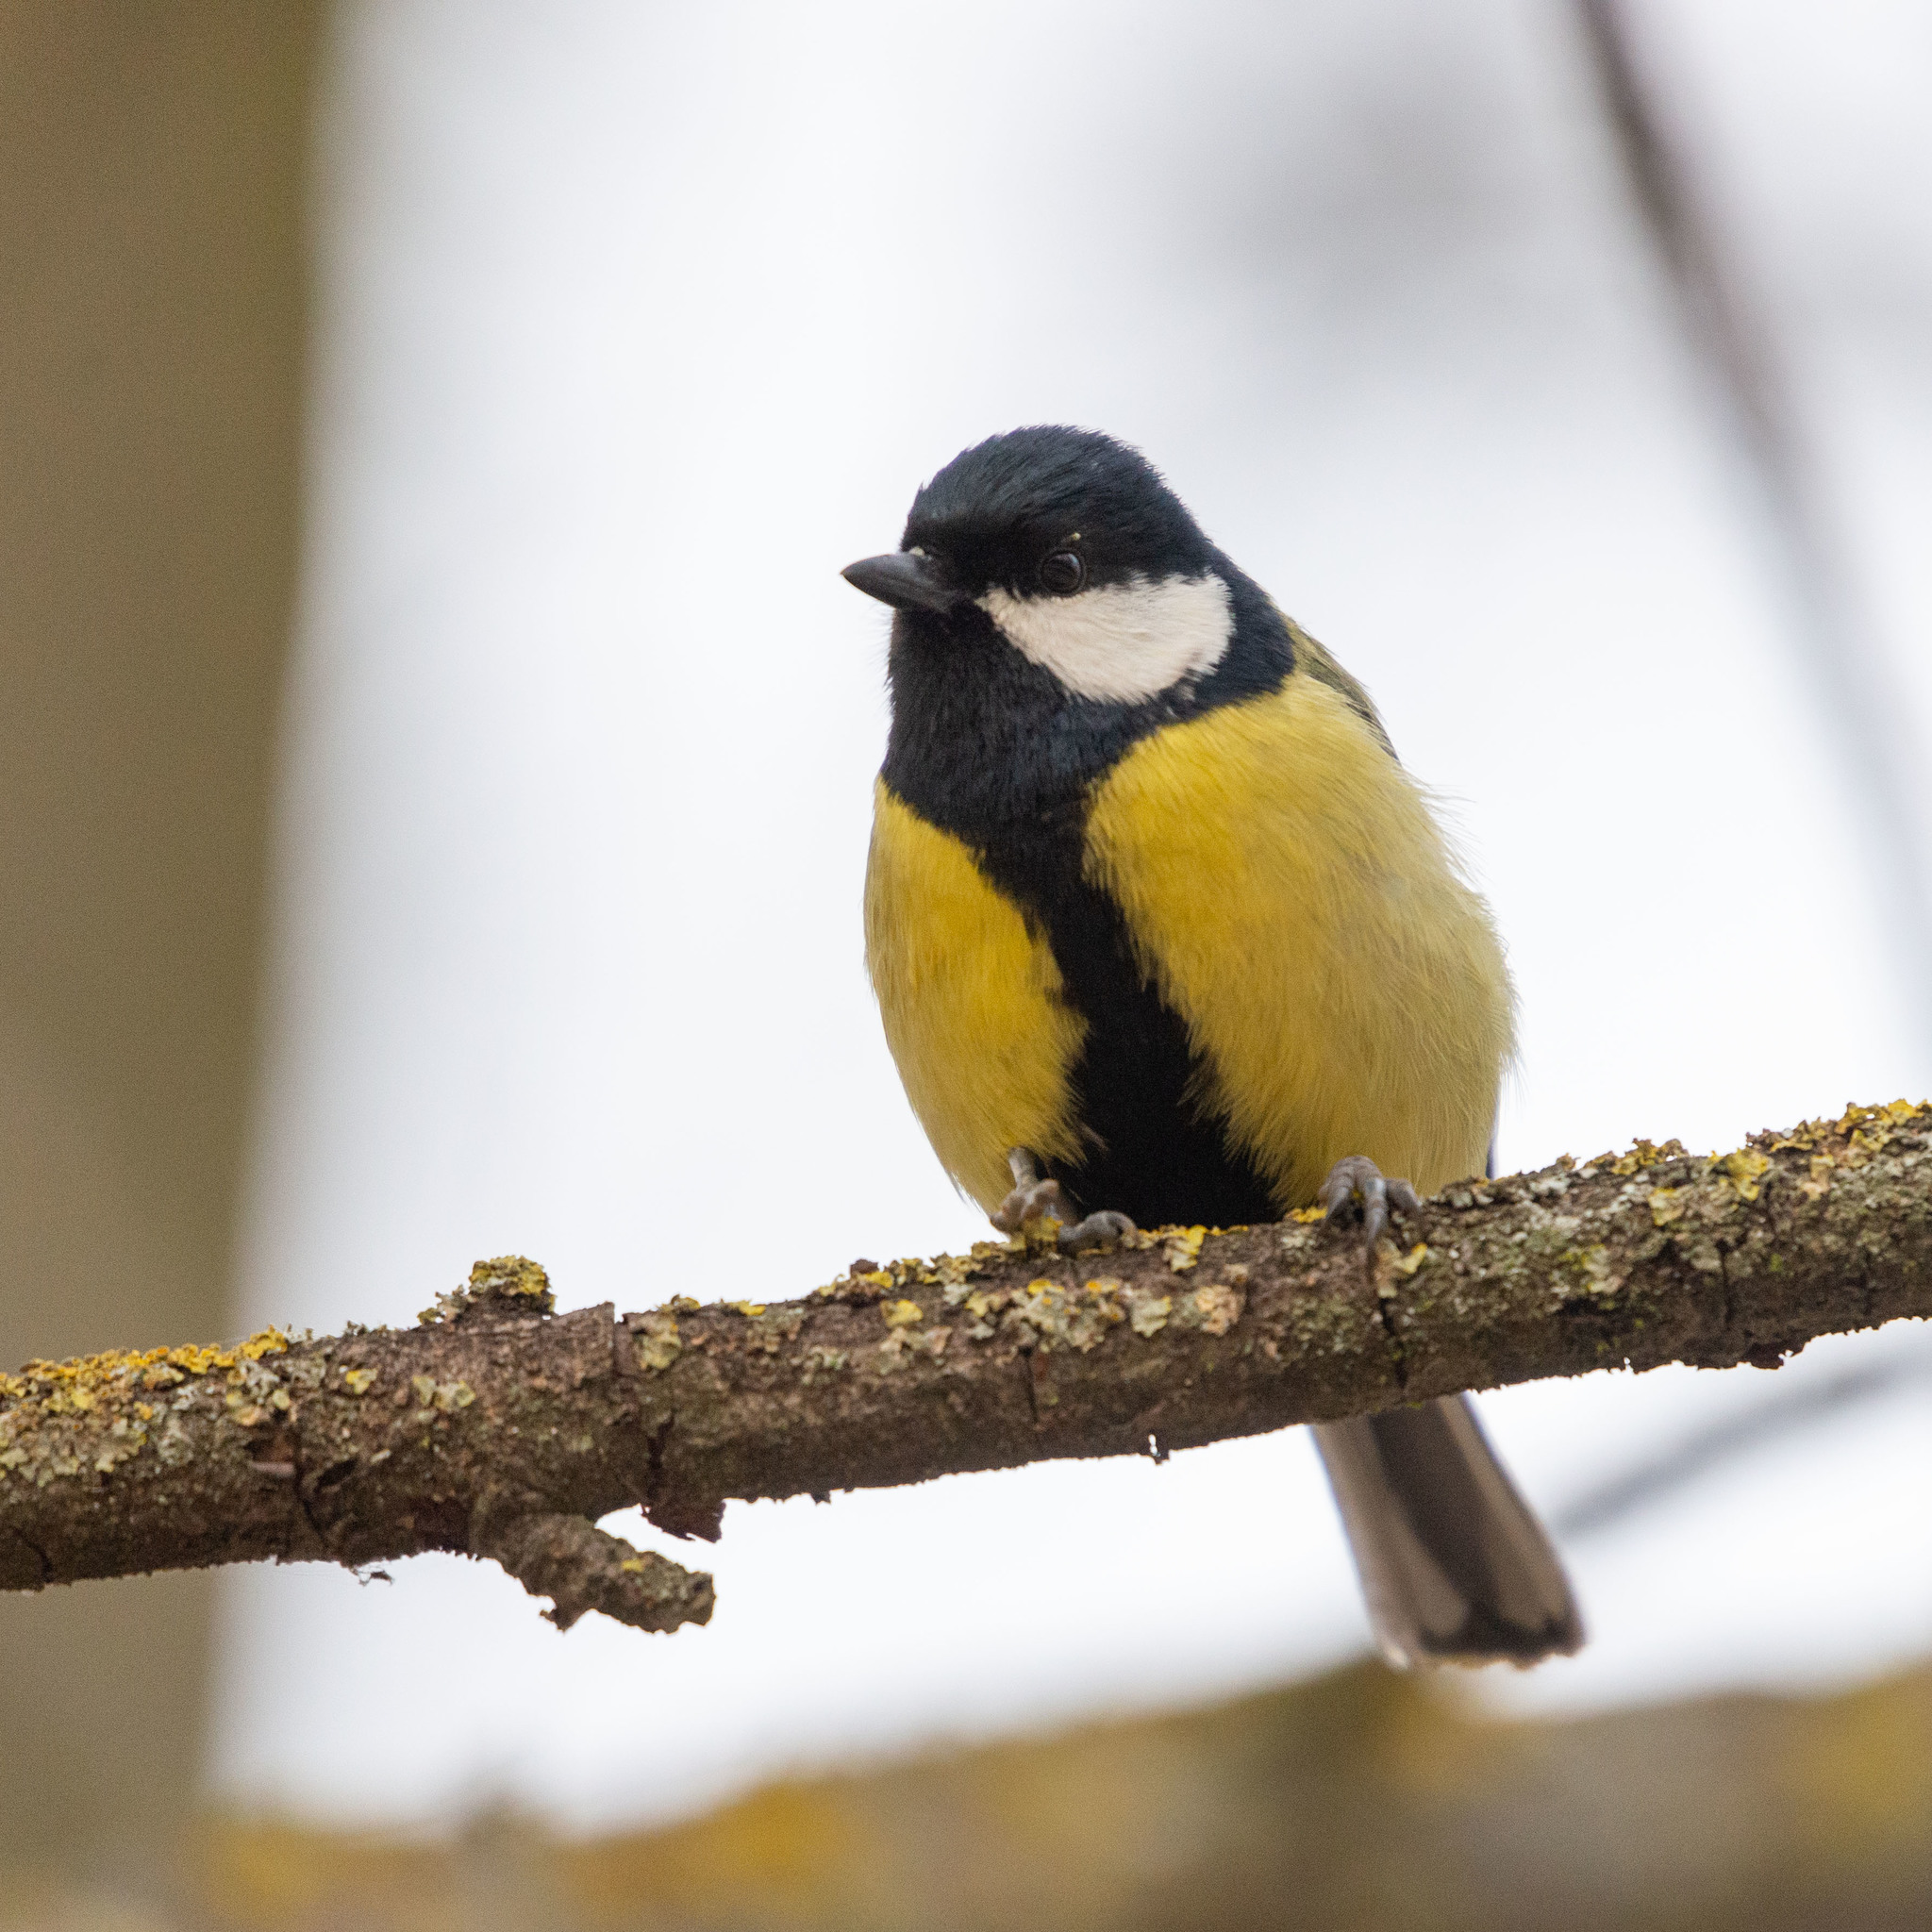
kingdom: Animalia
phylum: Chordata
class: Aves
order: Passeriformes
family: Paridae
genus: Parus
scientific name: Parus major
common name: Great tit
